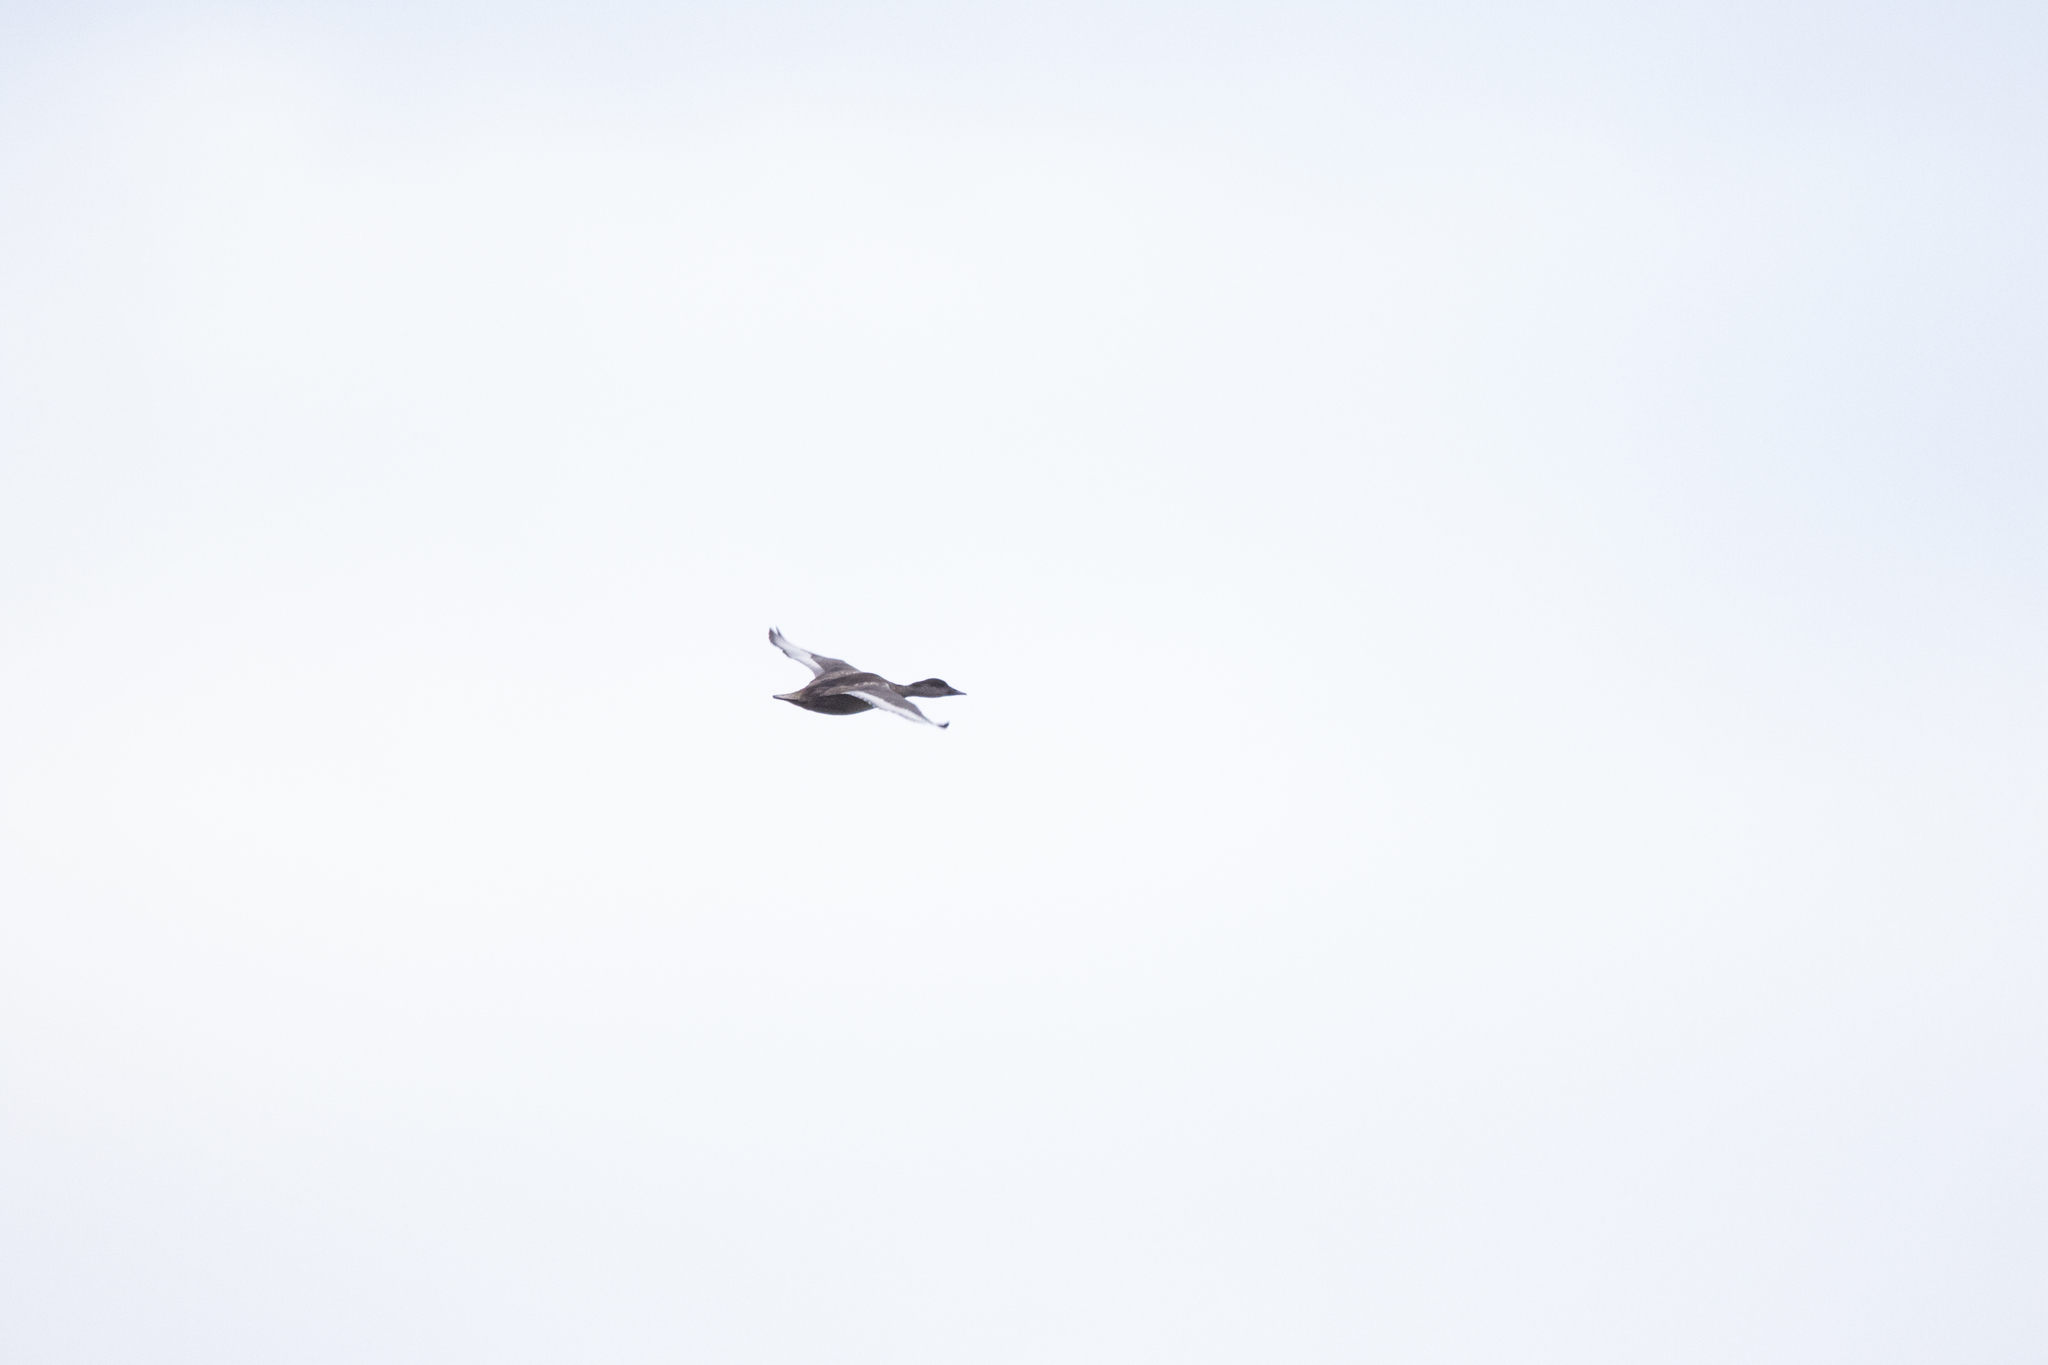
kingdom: Animalia
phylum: Chordata
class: Aves
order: Anseriformes
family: Anatidae
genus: Netta
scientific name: Netta rufina
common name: Red-crested pochard
